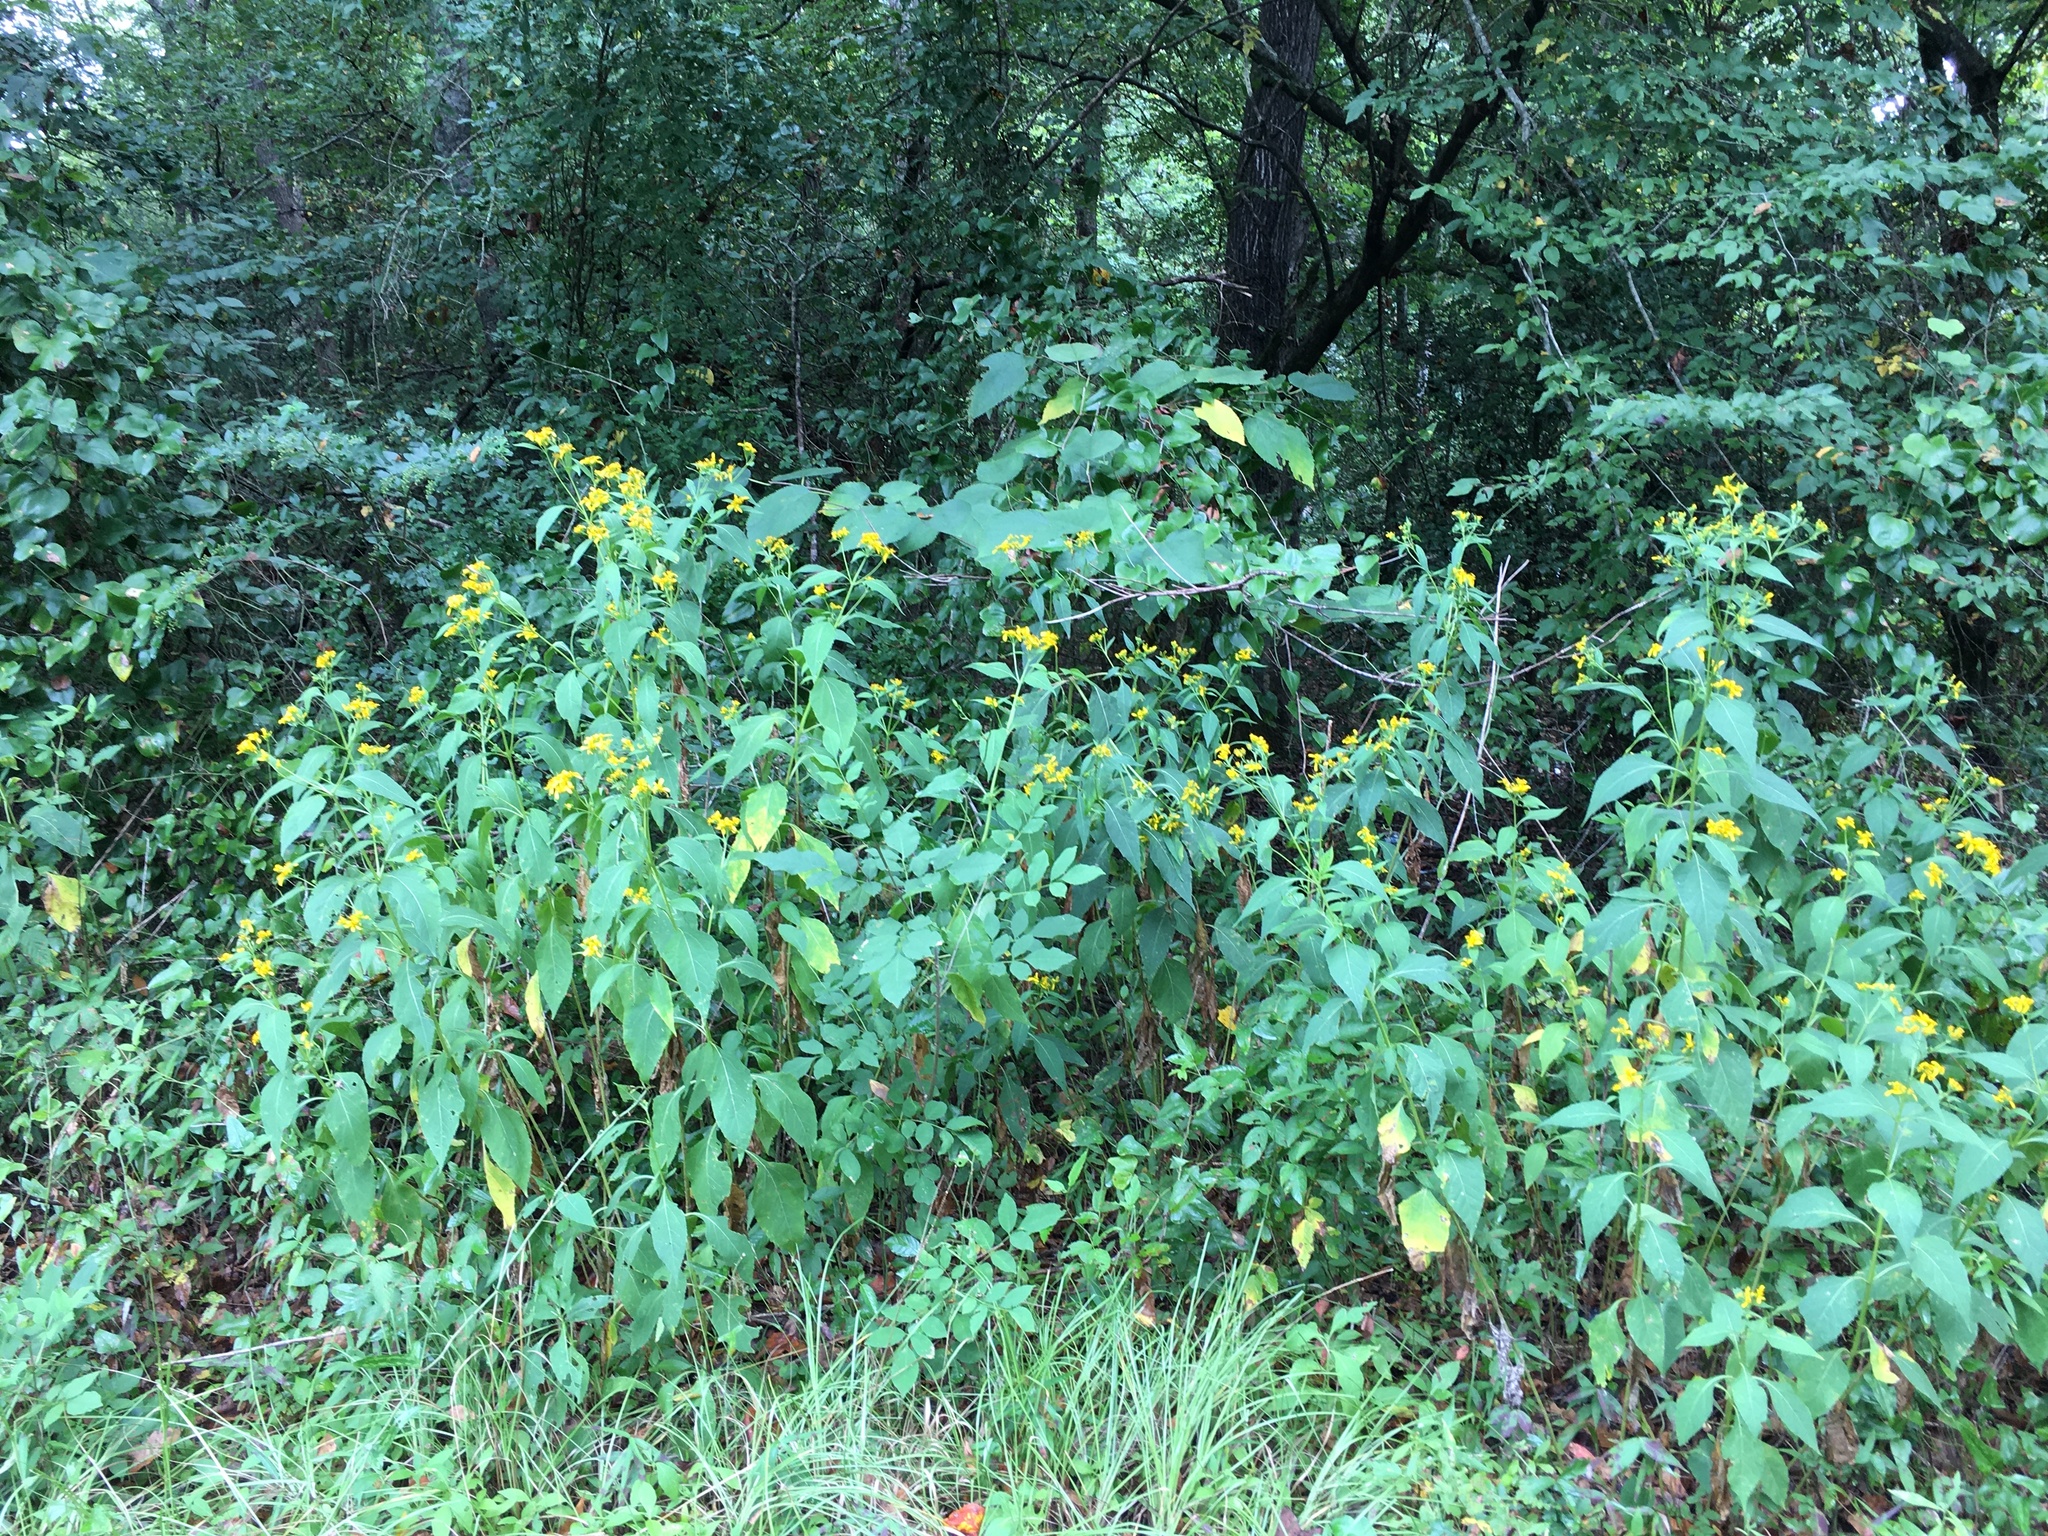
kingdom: Plantae
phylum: Tracheophyta
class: Magnoliopsida
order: Asterales
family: Asteraceae
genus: Verbesina
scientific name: Verbesina occidentalis
